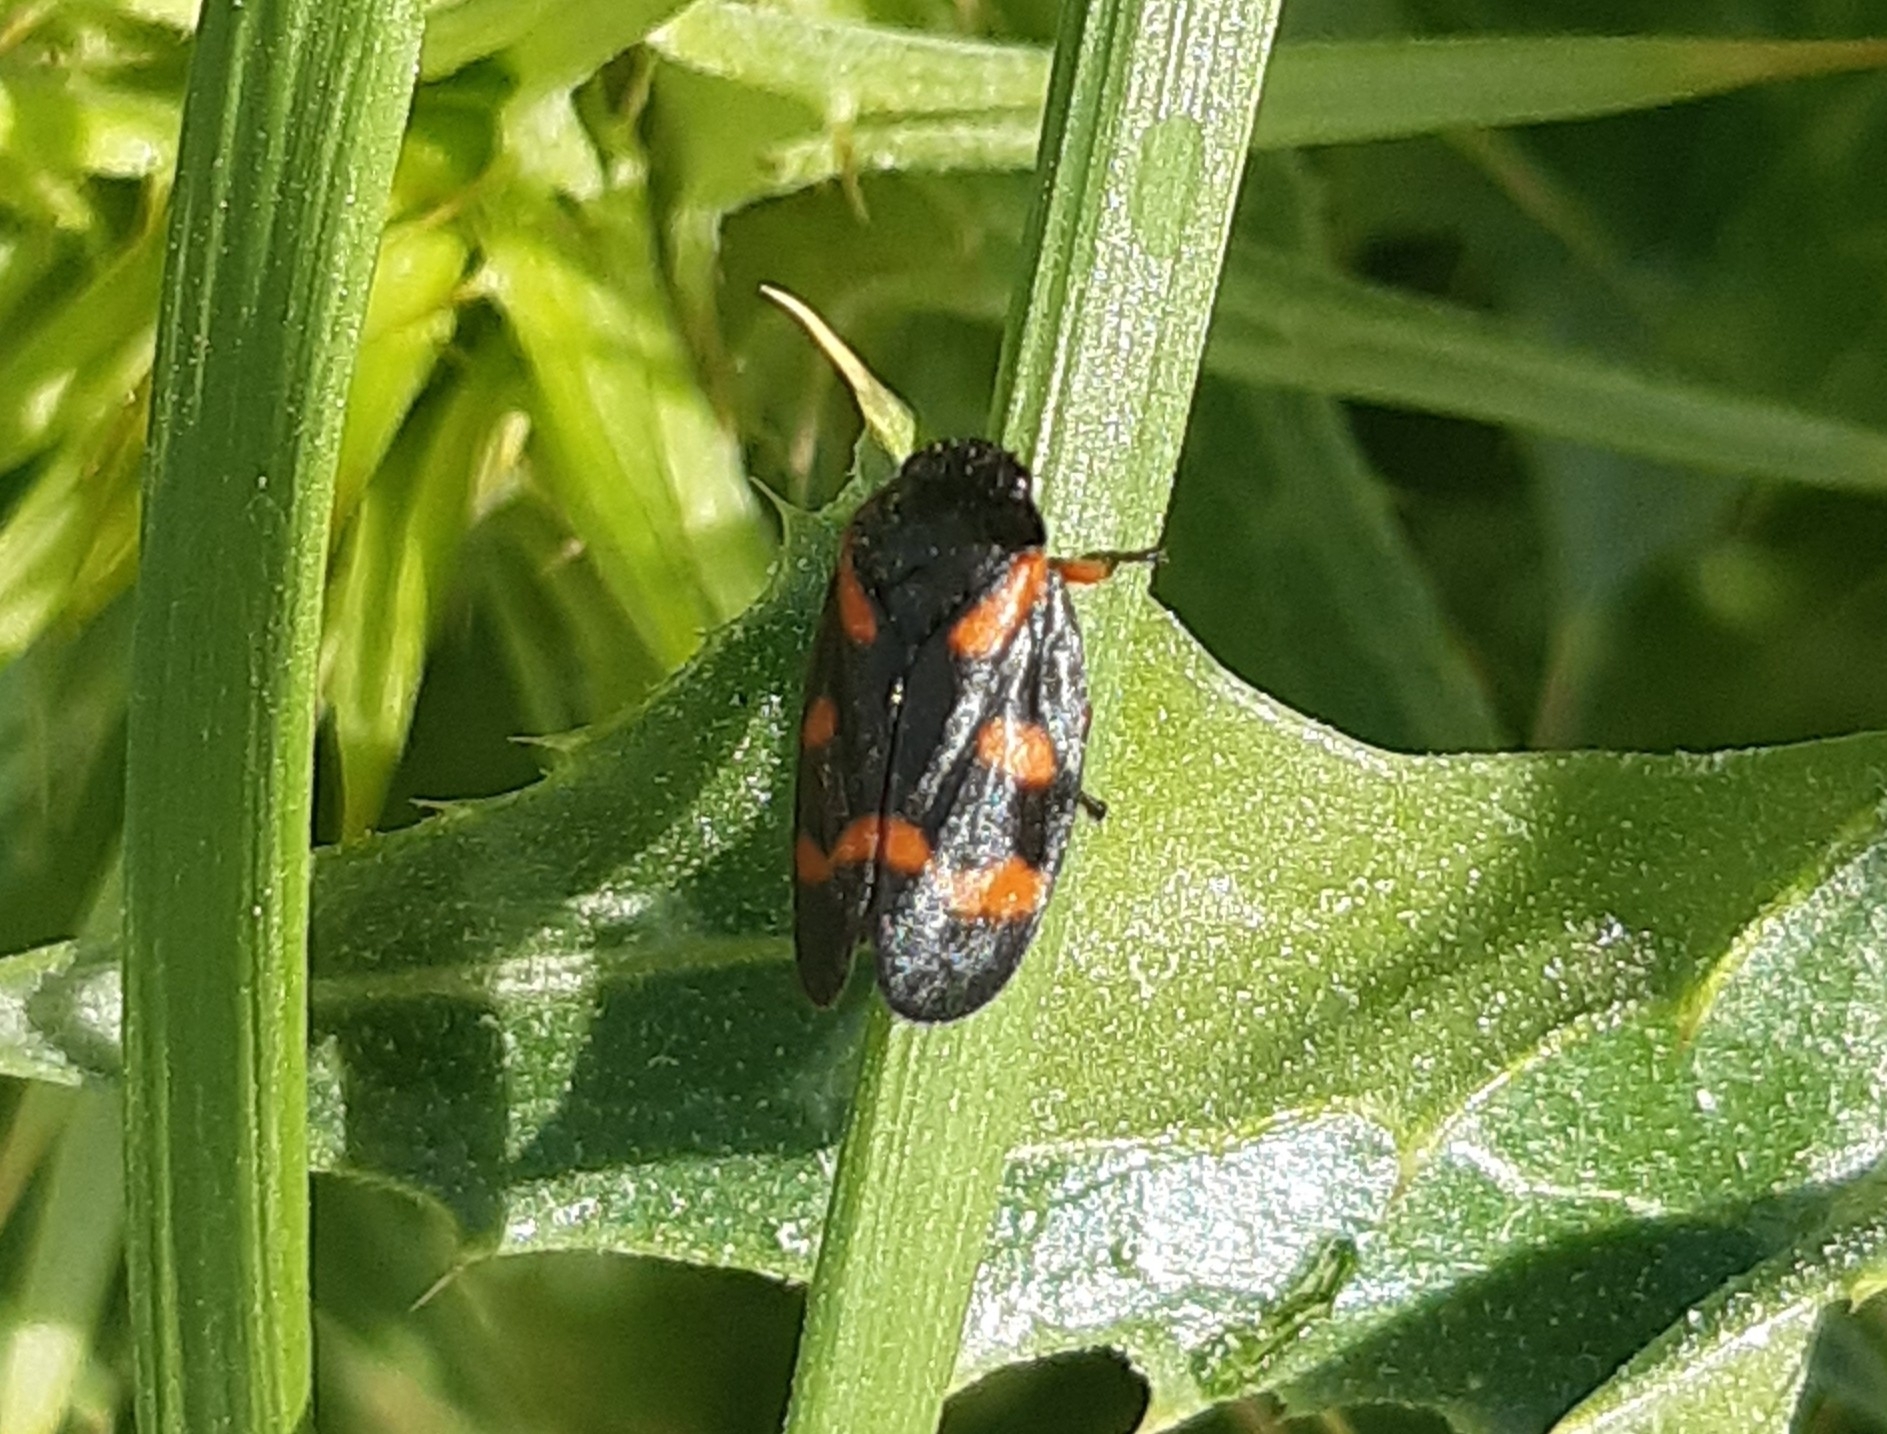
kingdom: Animalia
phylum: Arthropoda
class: Insecta
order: Hemiptera
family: Cercopidae
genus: Cercopis
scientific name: Cercopis intermedia
